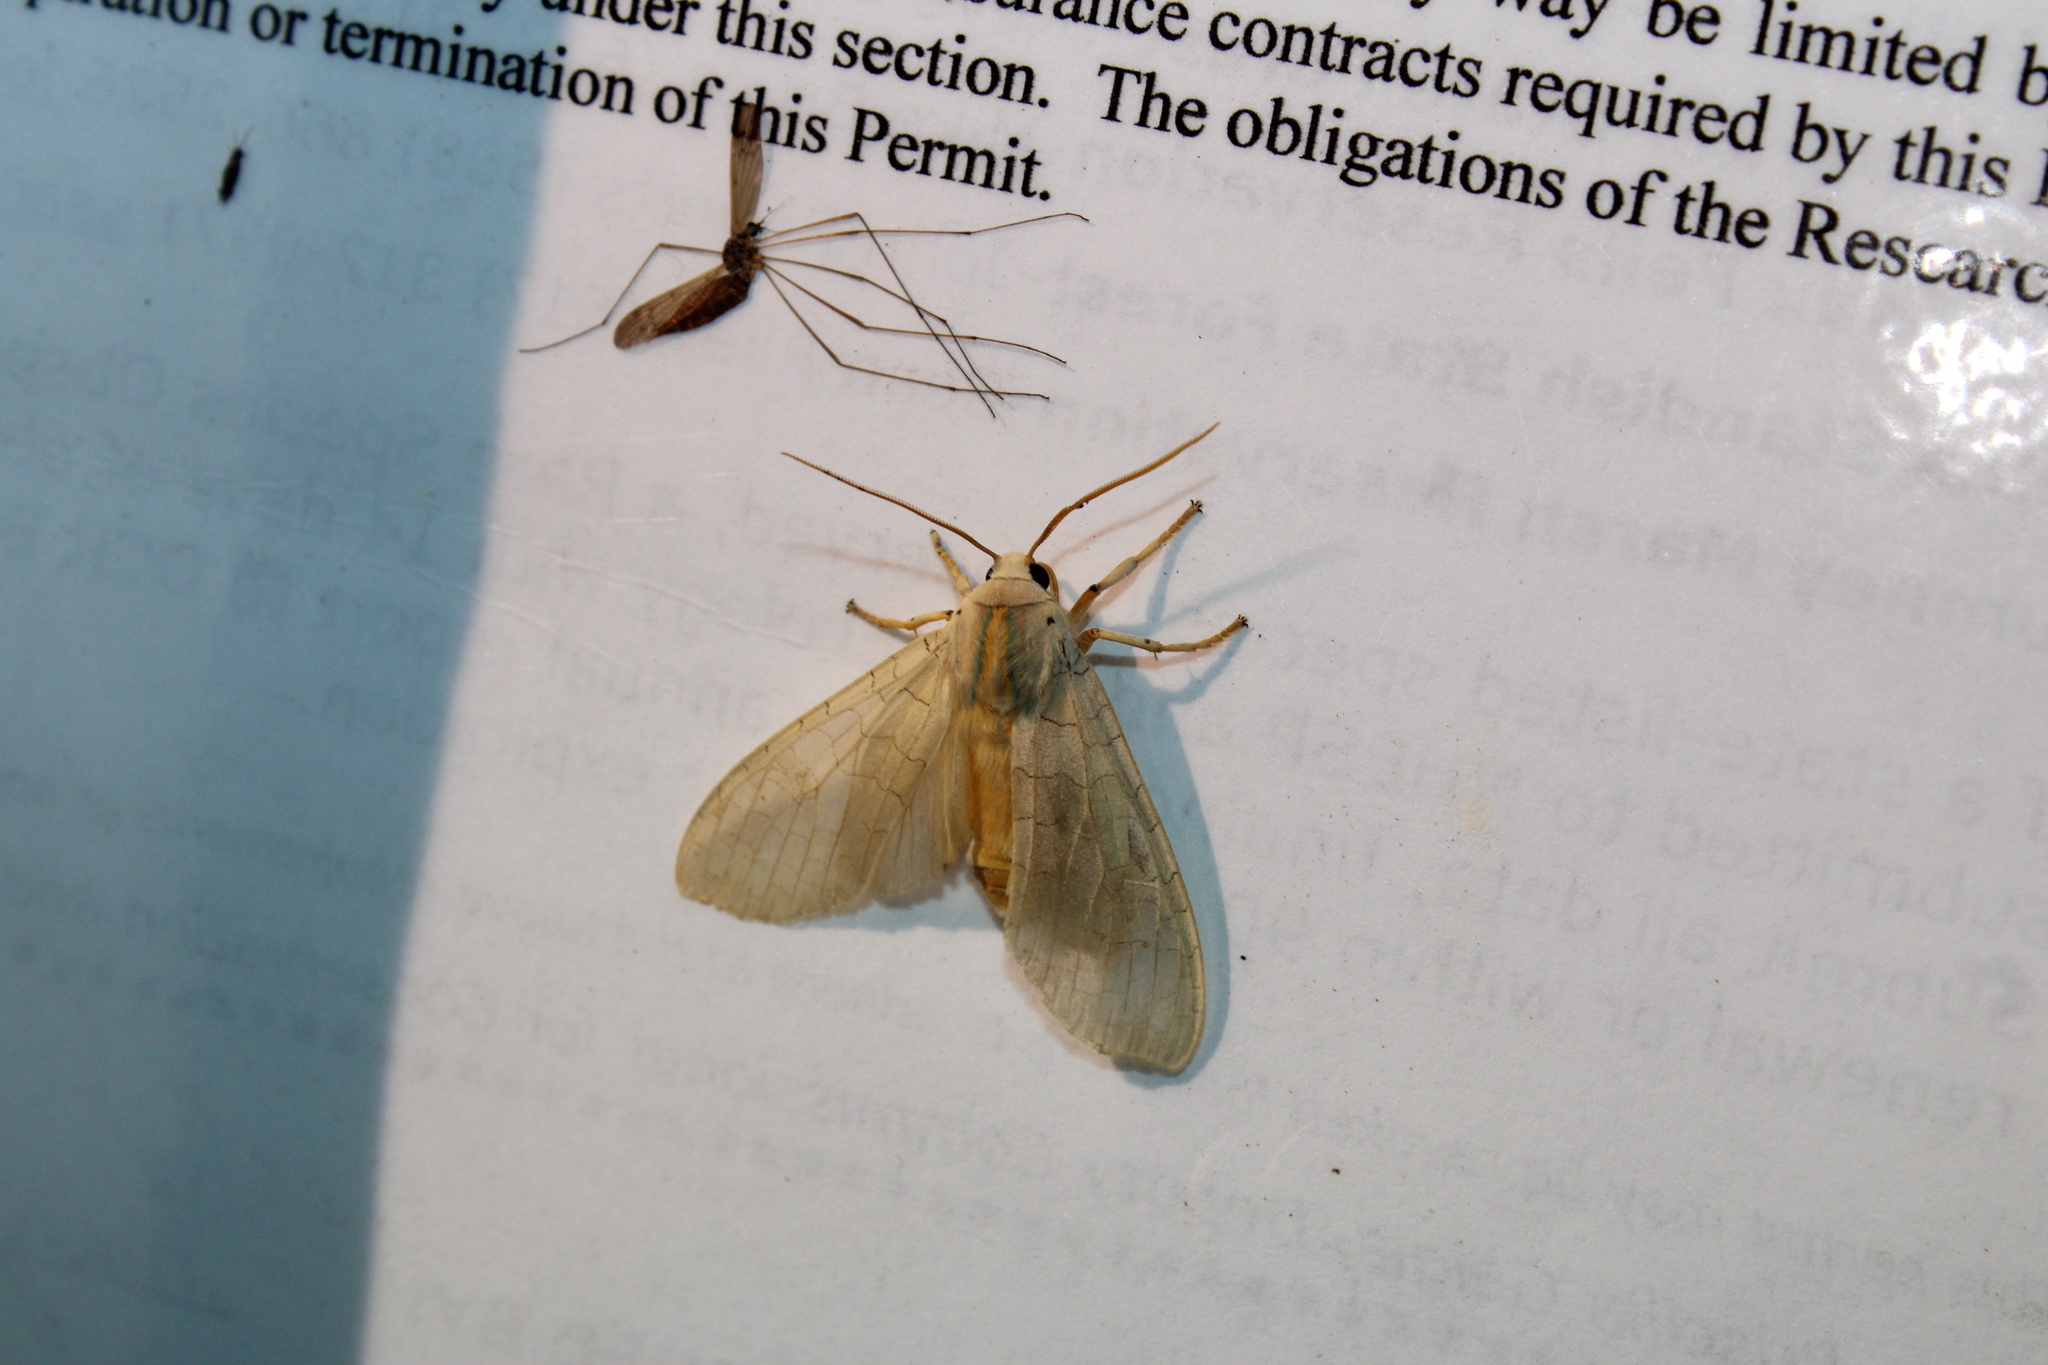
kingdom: Animalia
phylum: Arthropoda
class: Insecta
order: Lepidoptera
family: Erebidae
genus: Halysidota
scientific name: Halysidota
